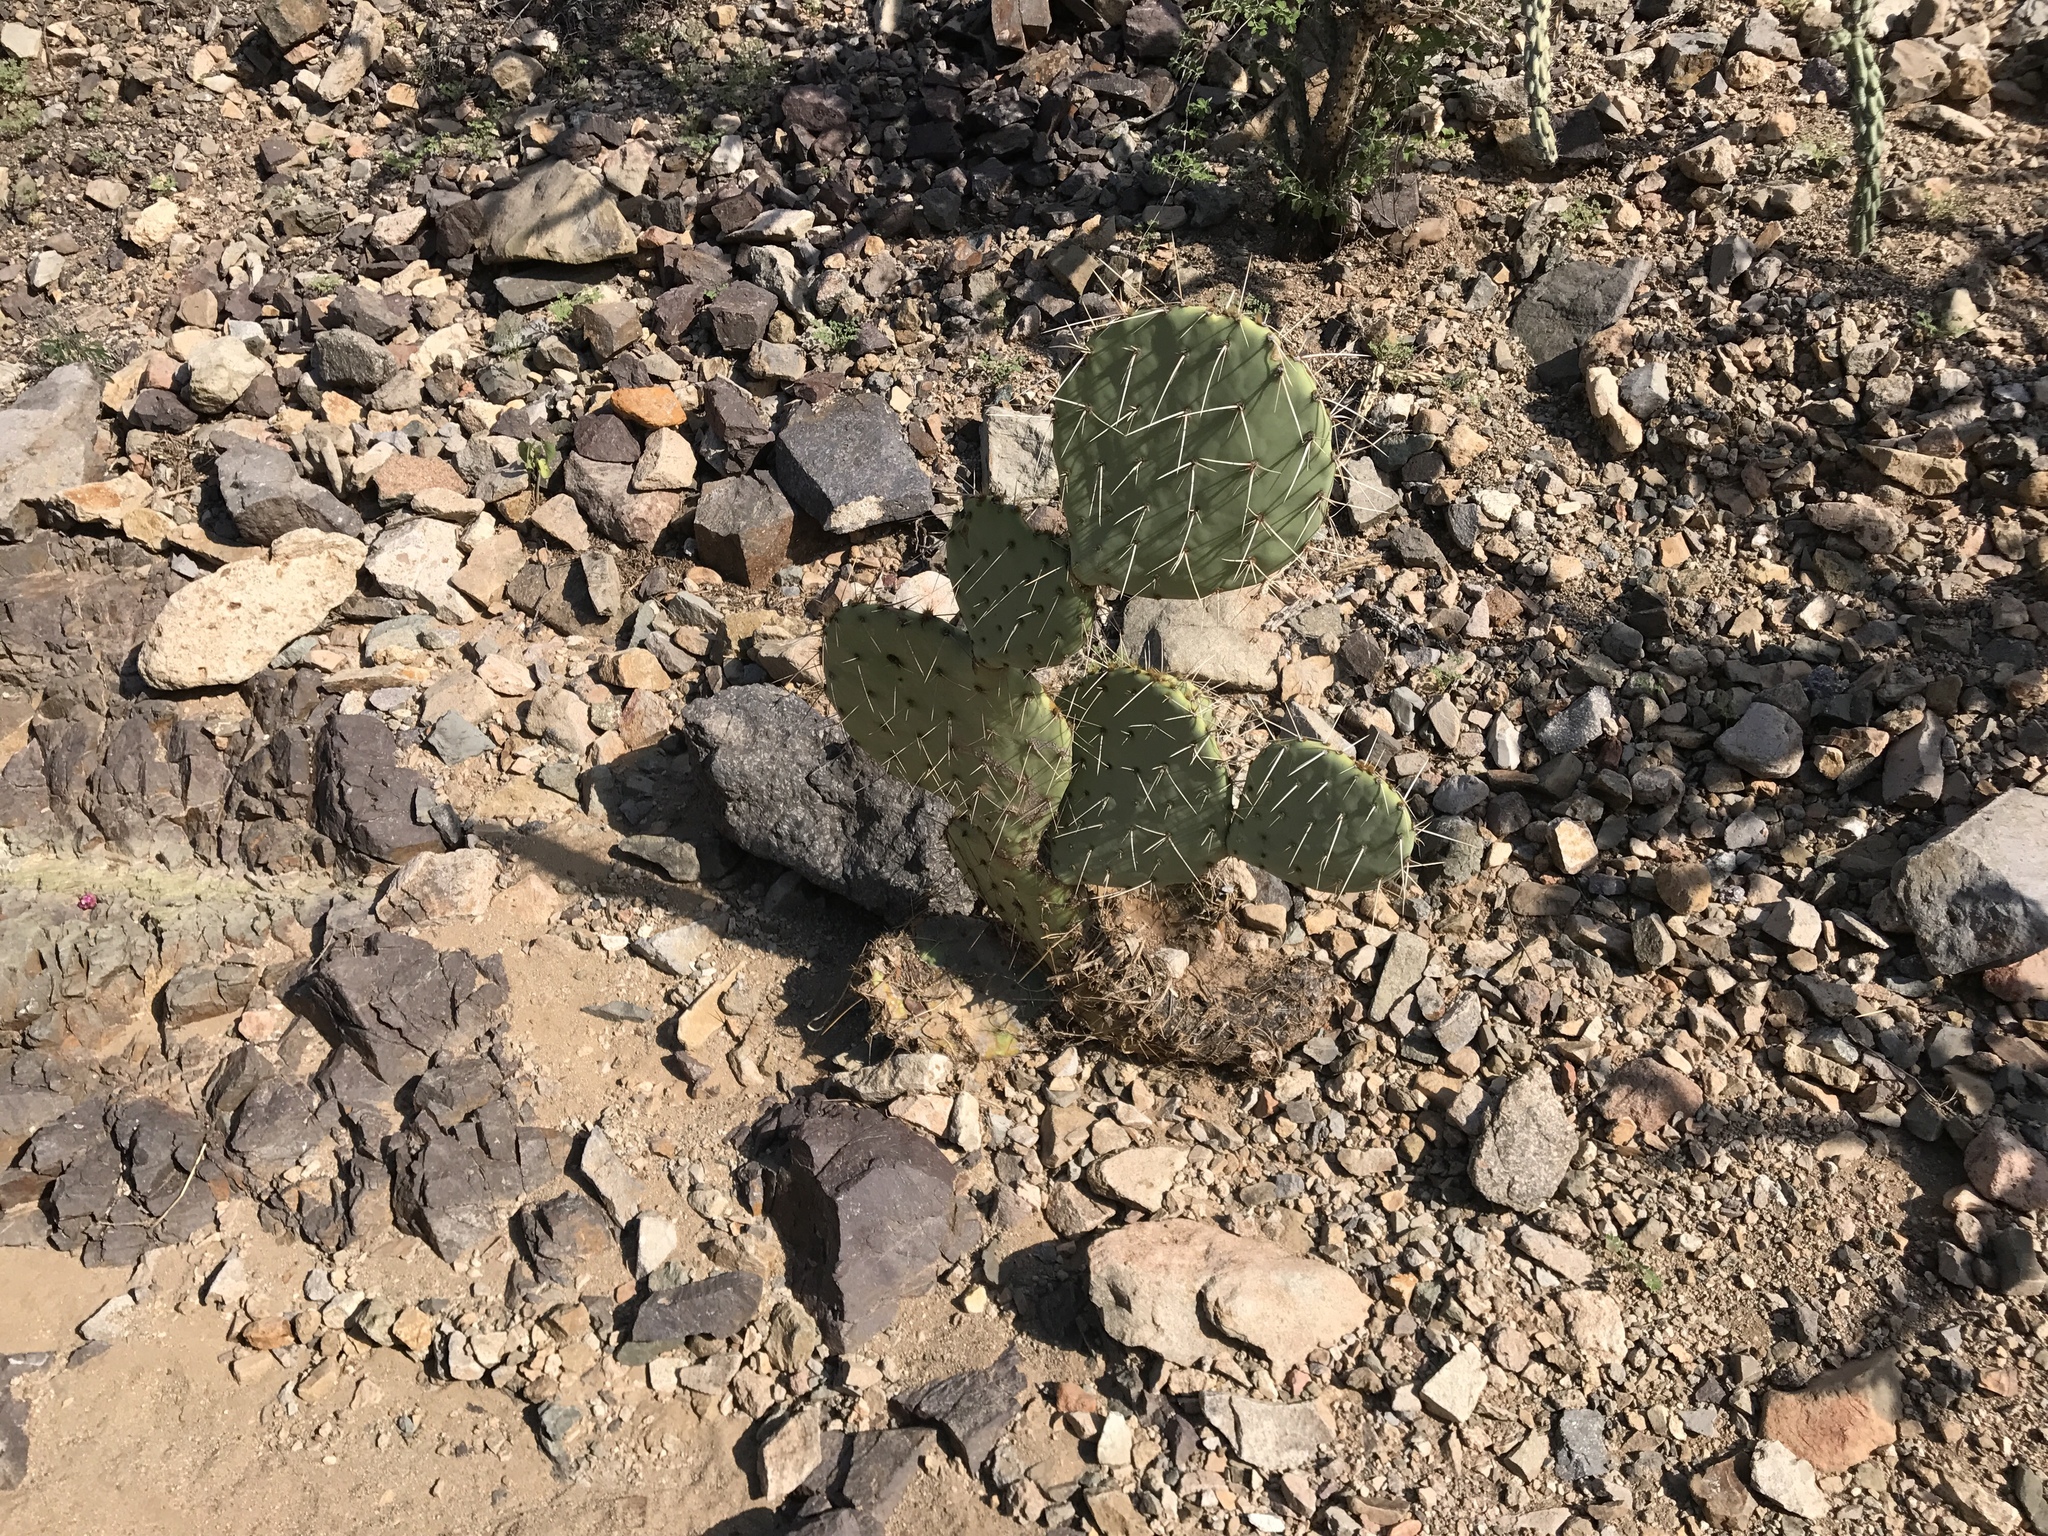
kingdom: Plantae
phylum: Tracheophyta
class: Magnoliopsida
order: Caryophyllales
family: Cactaceae
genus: Opuntia
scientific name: Opuntia engelmannii
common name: Cactus-apple
